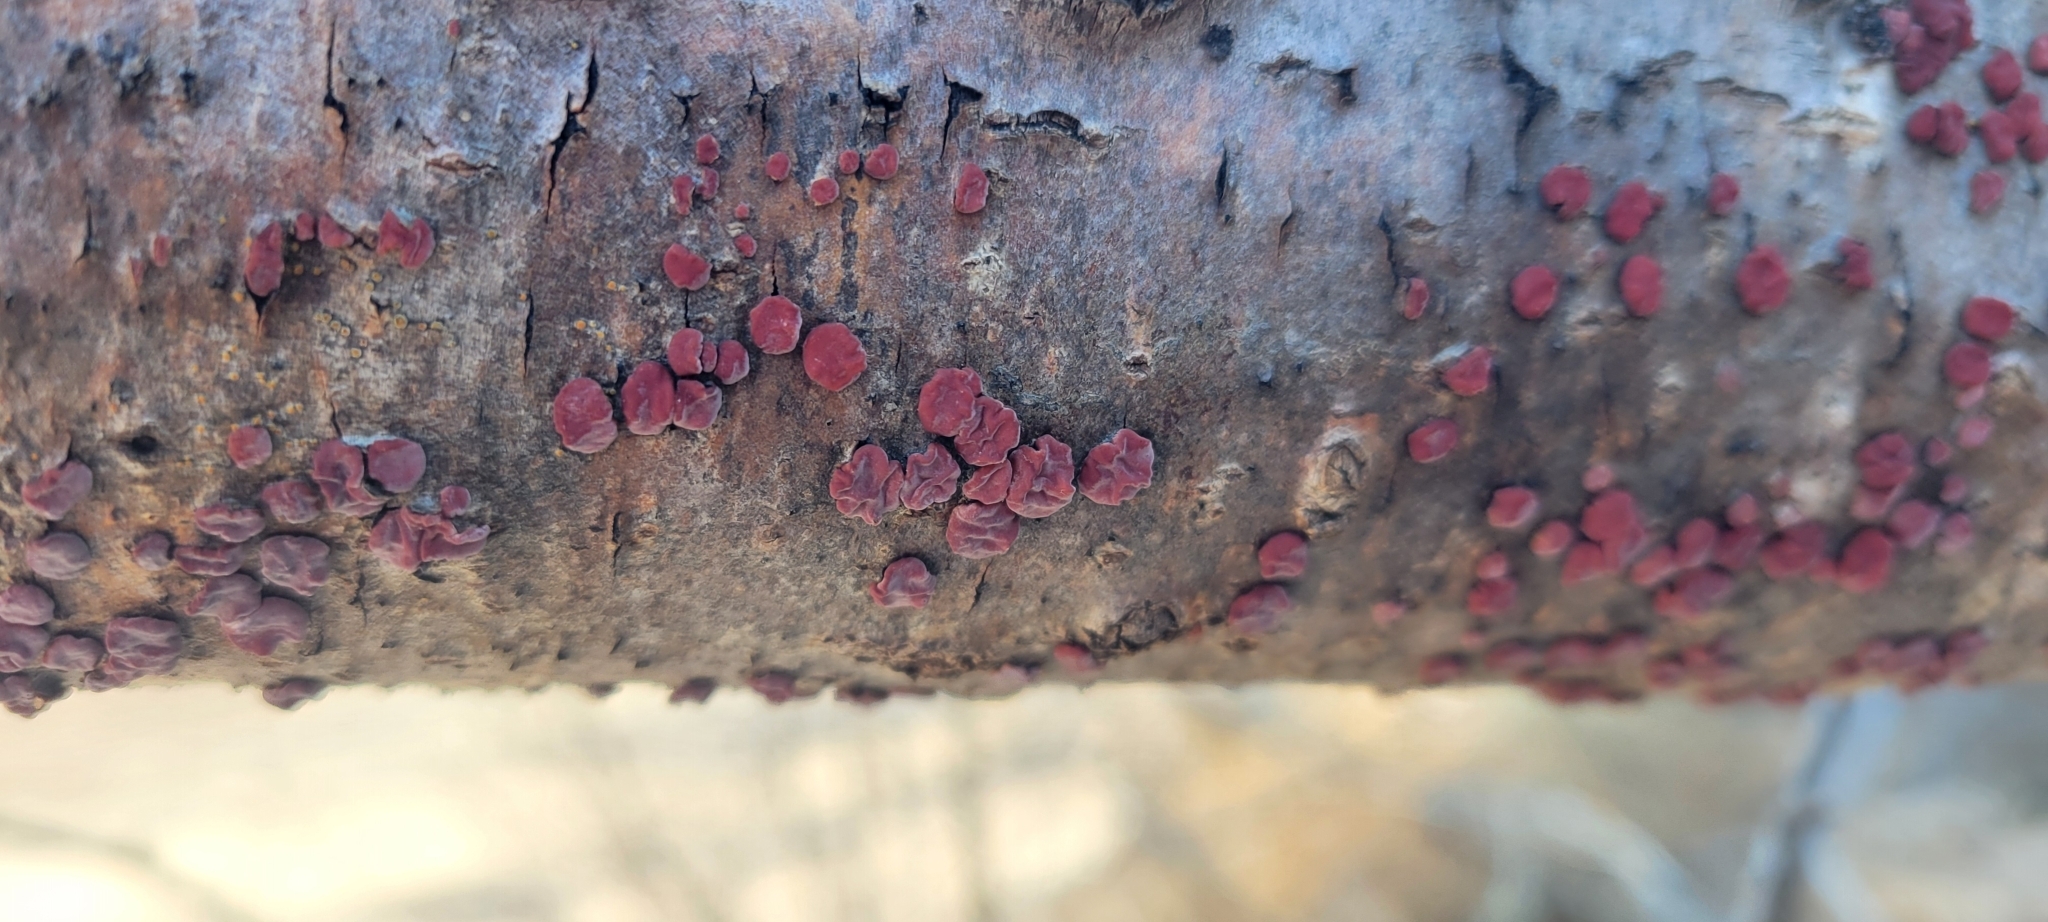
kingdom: Fungi
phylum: Basidiomycota
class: Agaricomycetes
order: Russulales
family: Peniophoraceae
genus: Peniophora
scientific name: Peniophora rufa
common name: Red tree brain fungus
